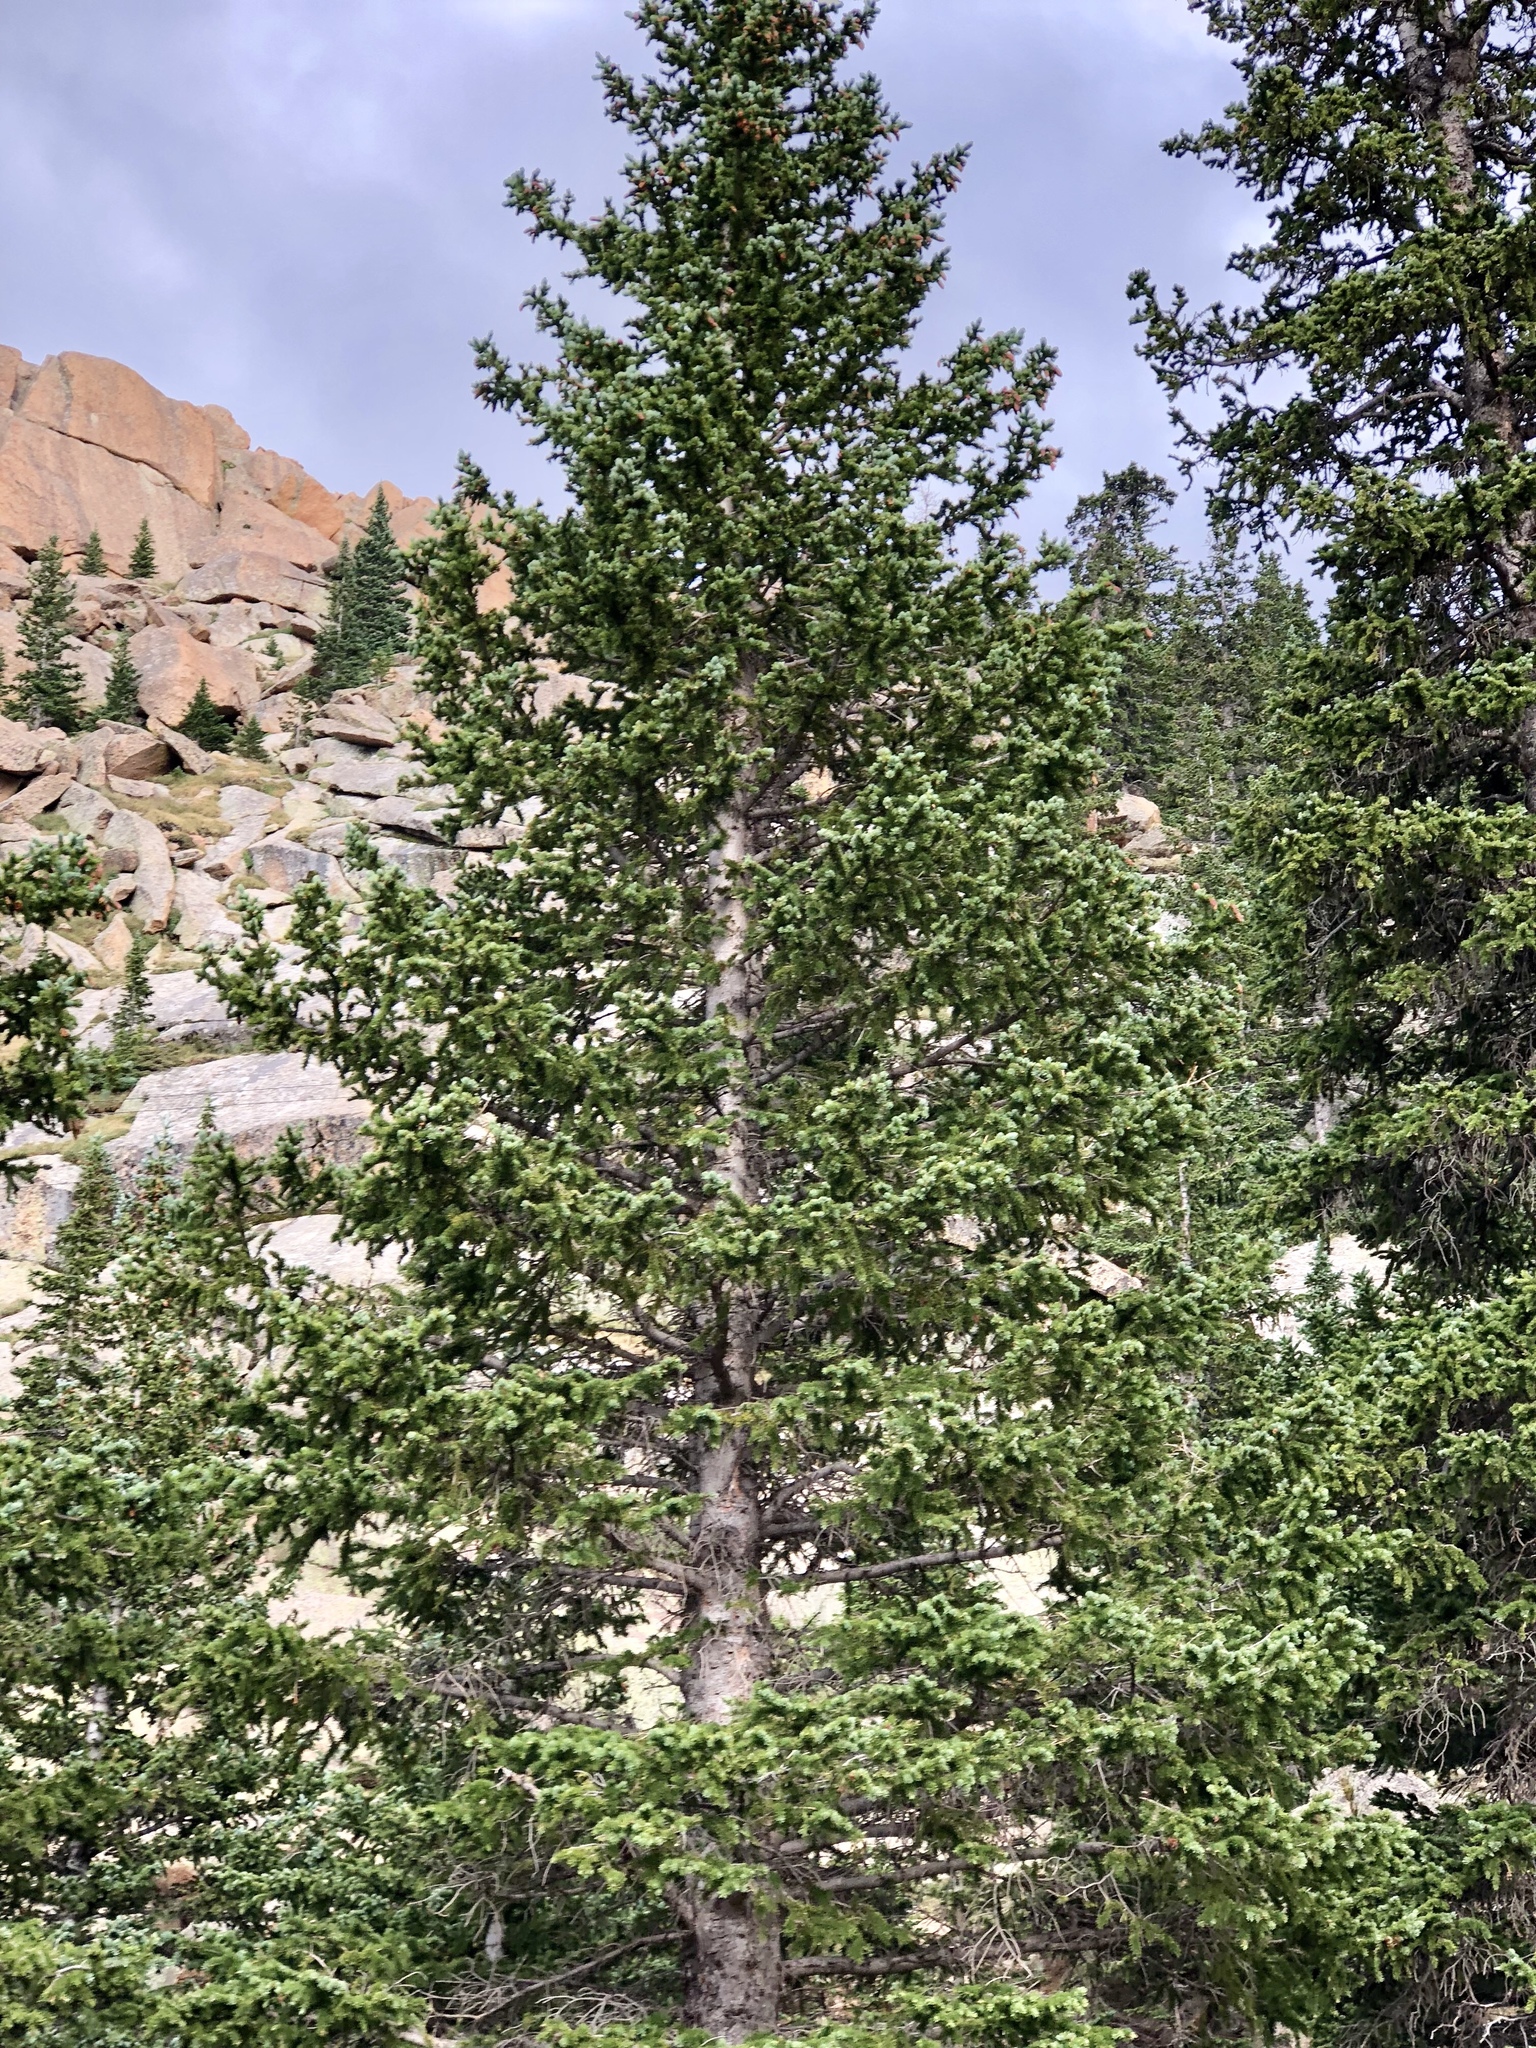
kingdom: Plantae
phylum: Tracheophyta
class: Pinopsida
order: Pinales
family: Pinaceae
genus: Picea
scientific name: Picea engelmannii
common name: Engelmann spruce
